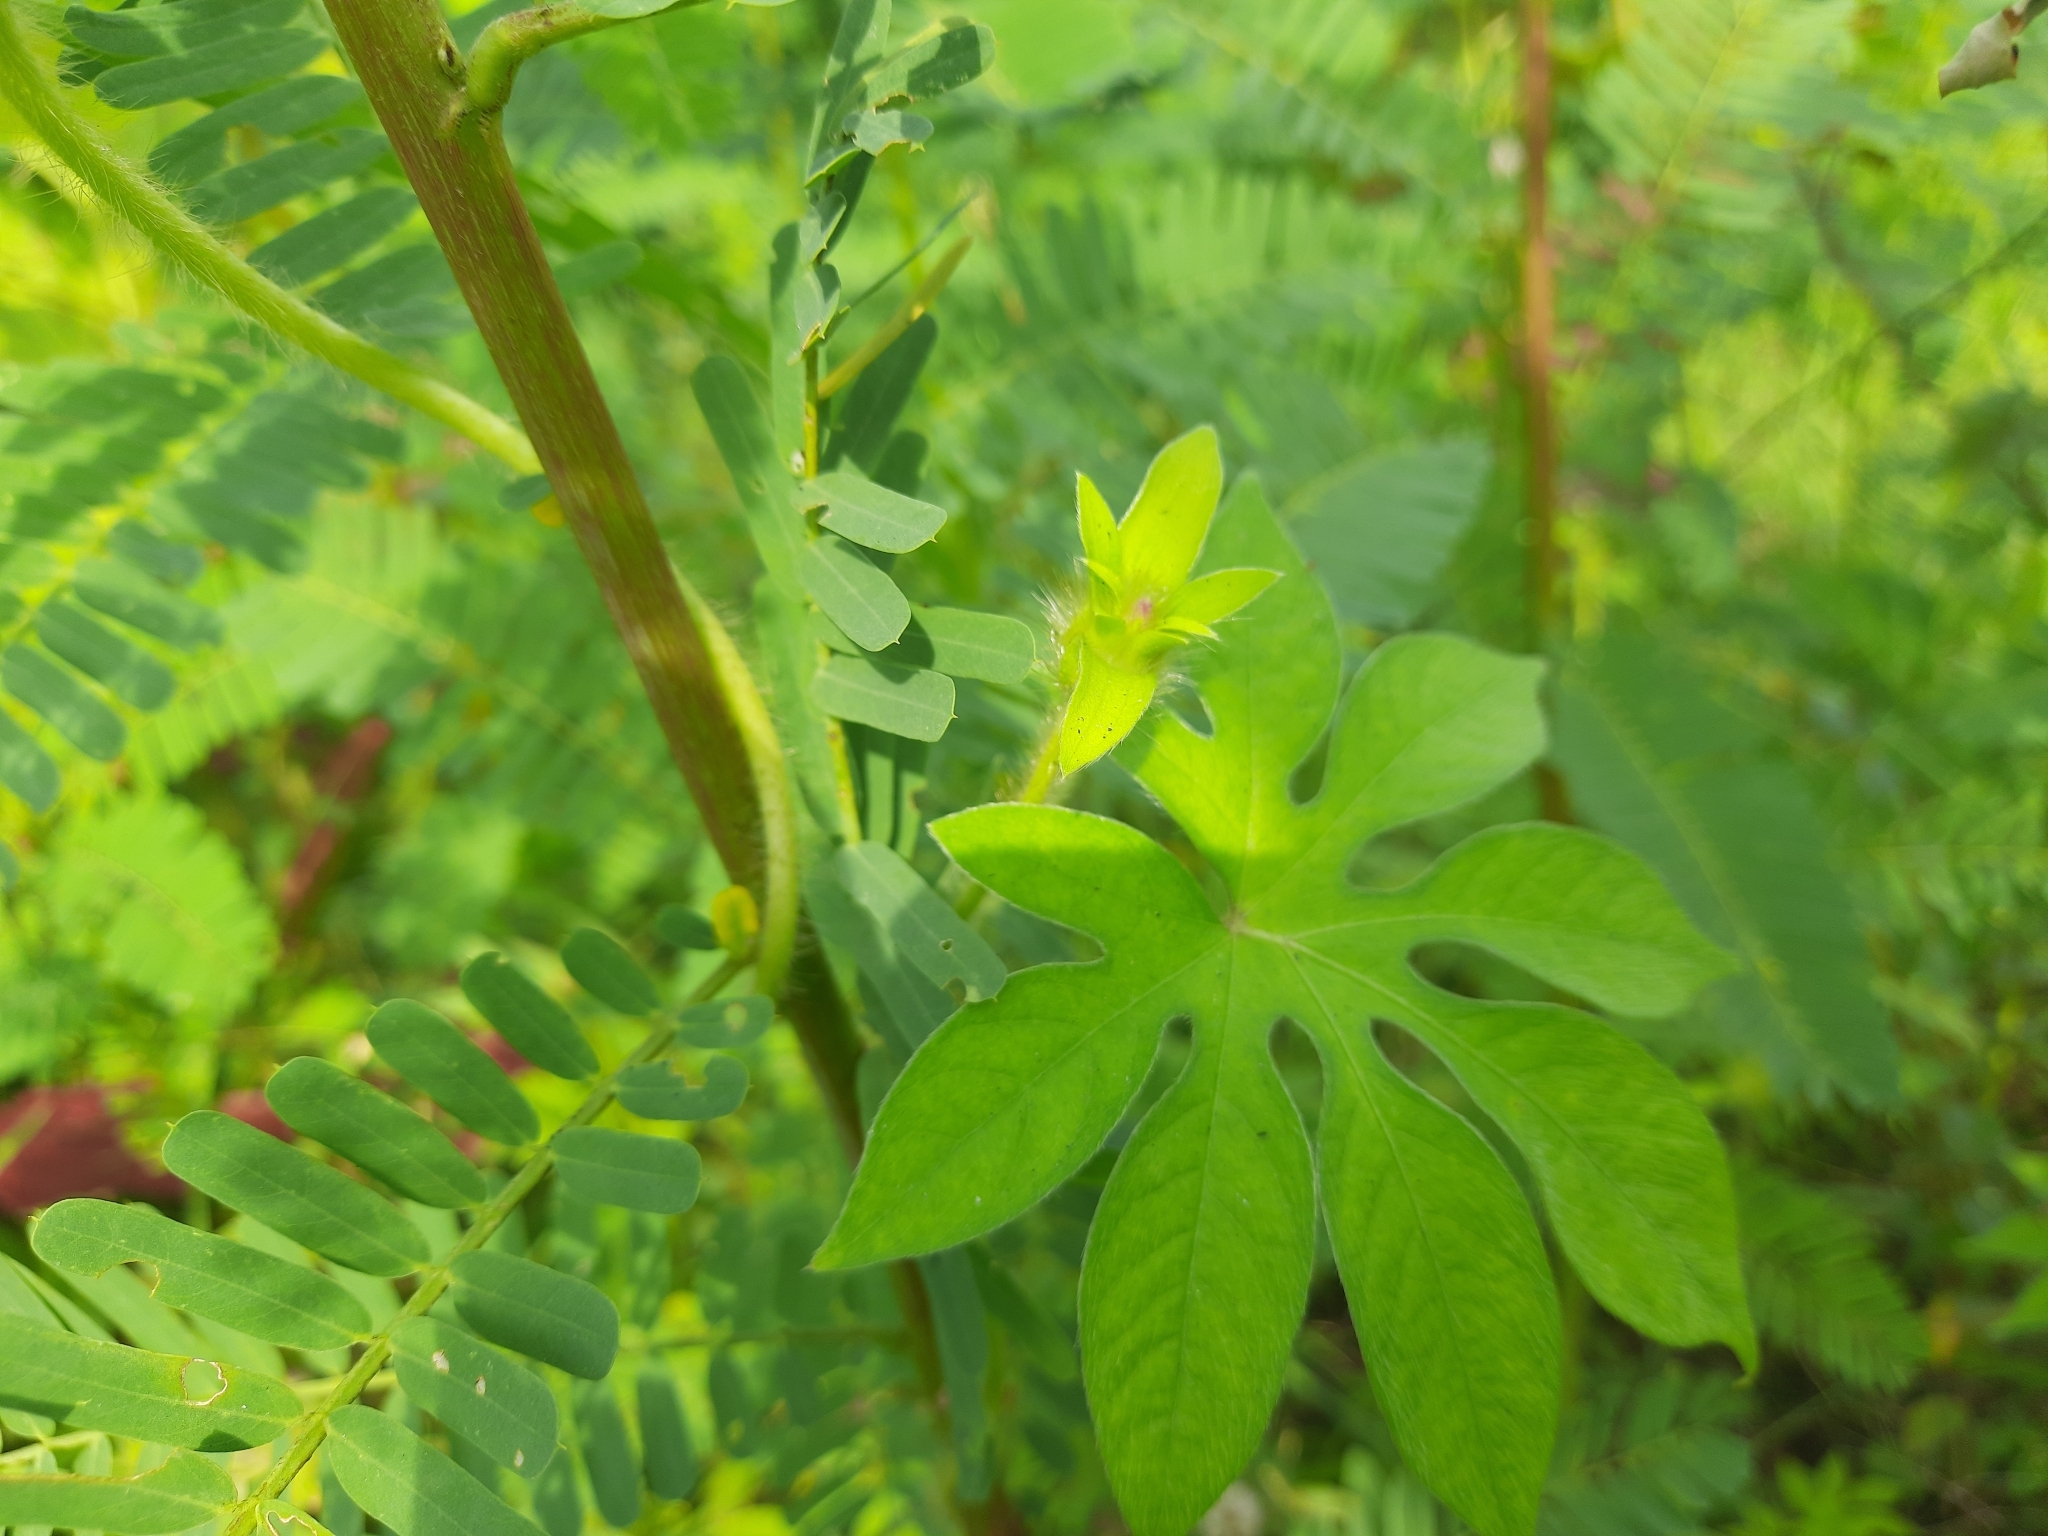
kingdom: Plantae
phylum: Tracheophyta
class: Magnoliopsida
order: Solanales
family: Convolvulaceae
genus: Ipomoea
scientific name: Ipomoea pes-tigridis
